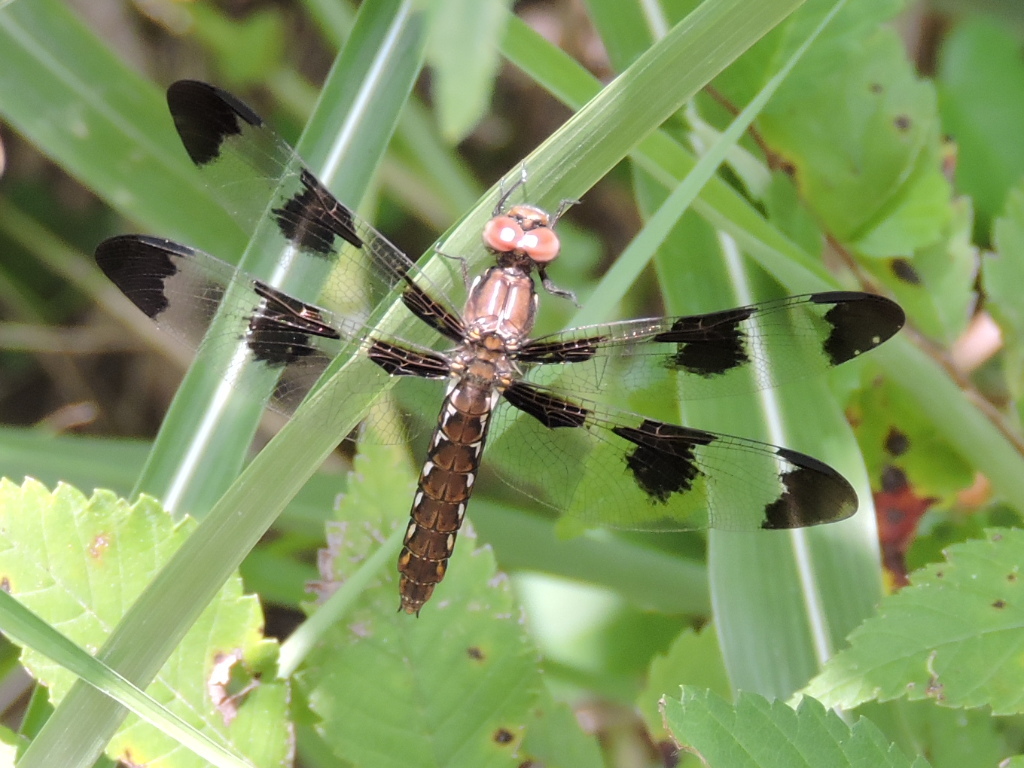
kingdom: Animalia
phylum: Arthropoda
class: Insecta
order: Odonata
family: Libellulidae
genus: Plathemis
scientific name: Plathemis lydia
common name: Common whitetail
